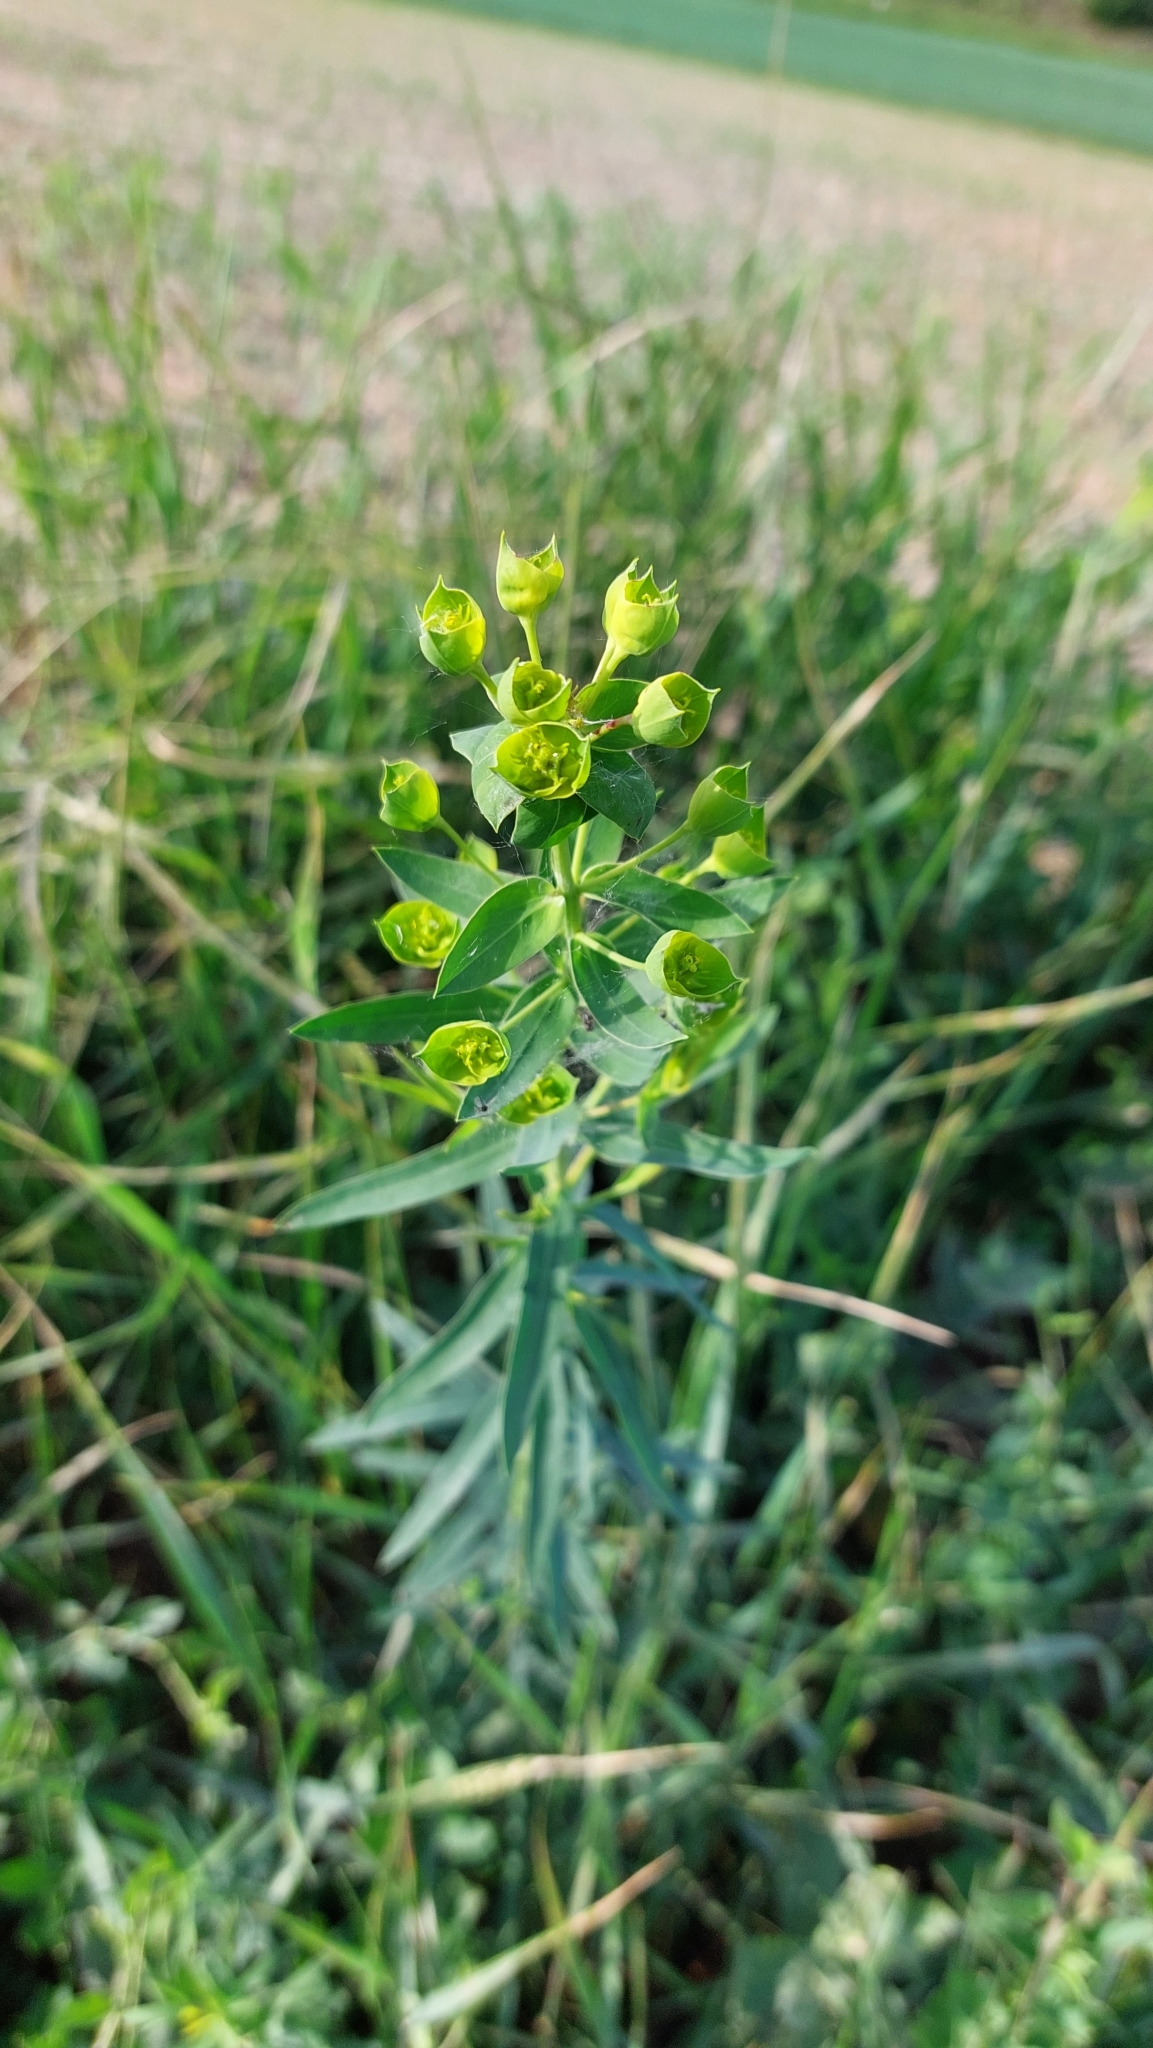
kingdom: Plantae
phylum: Tracheophyta
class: Magnoliopsida
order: Malpighiales
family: Euphorbiaceae
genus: Euphorbia
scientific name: Euphorbia virgata
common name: Leafy spurge
